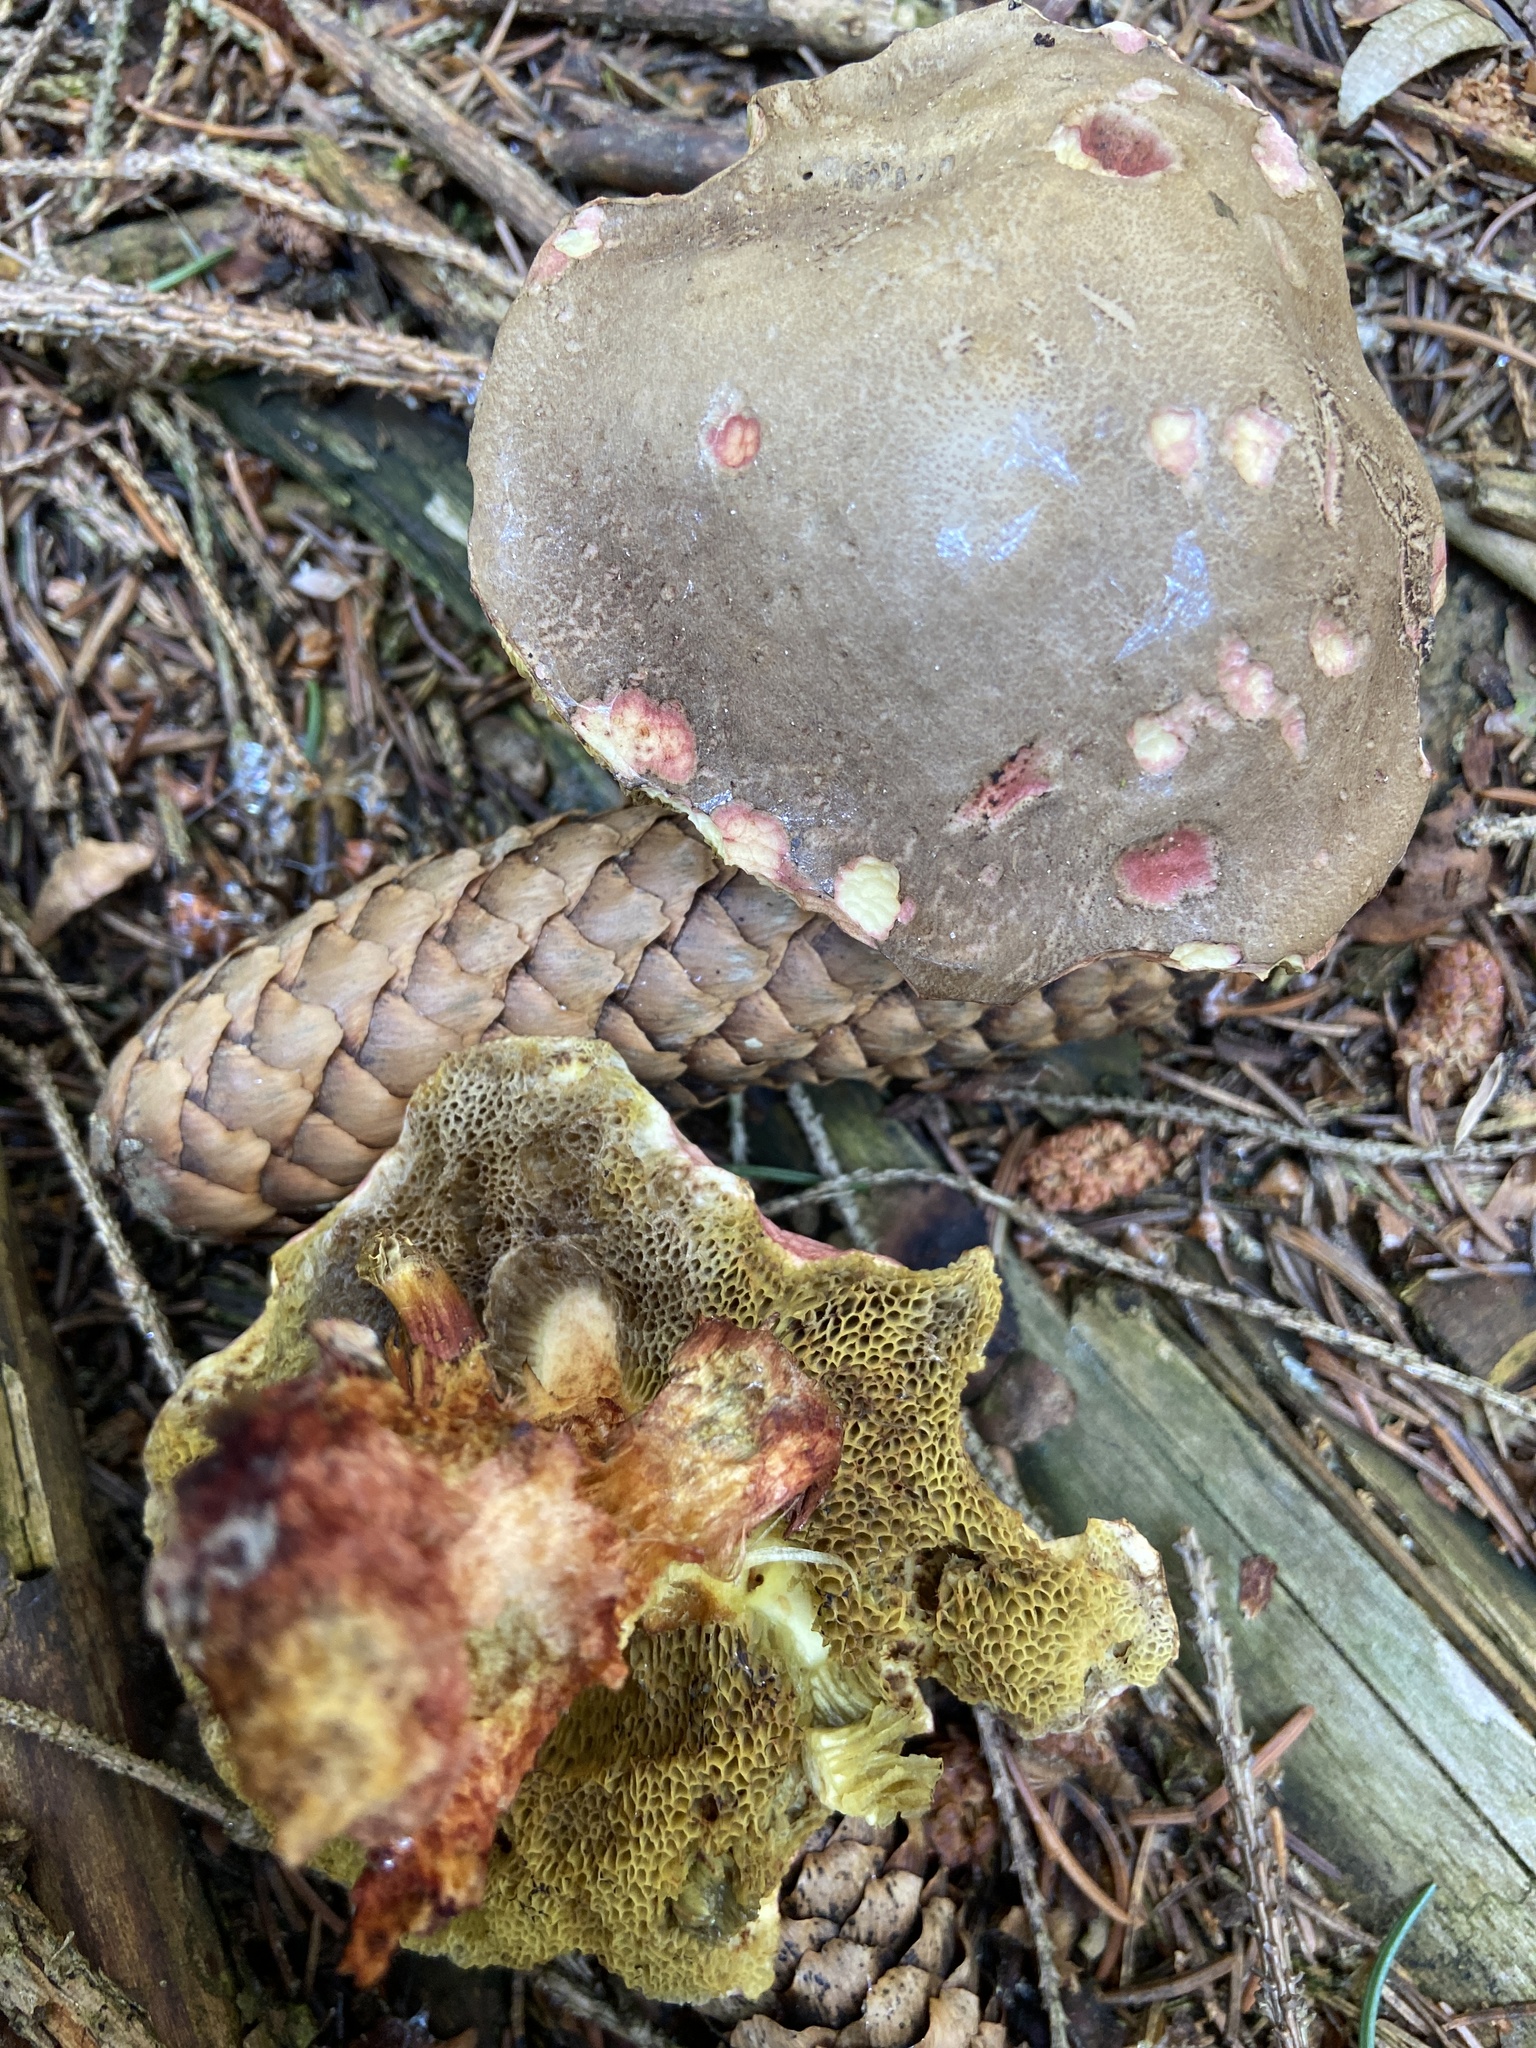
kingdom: Fungi
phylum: Basidiomycota
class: Agaricomycetes
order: Boletales
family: Boletaceae
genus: Xerocomellus
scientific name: Xerocomellus chrysenteron
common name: Red-cracking bolete
